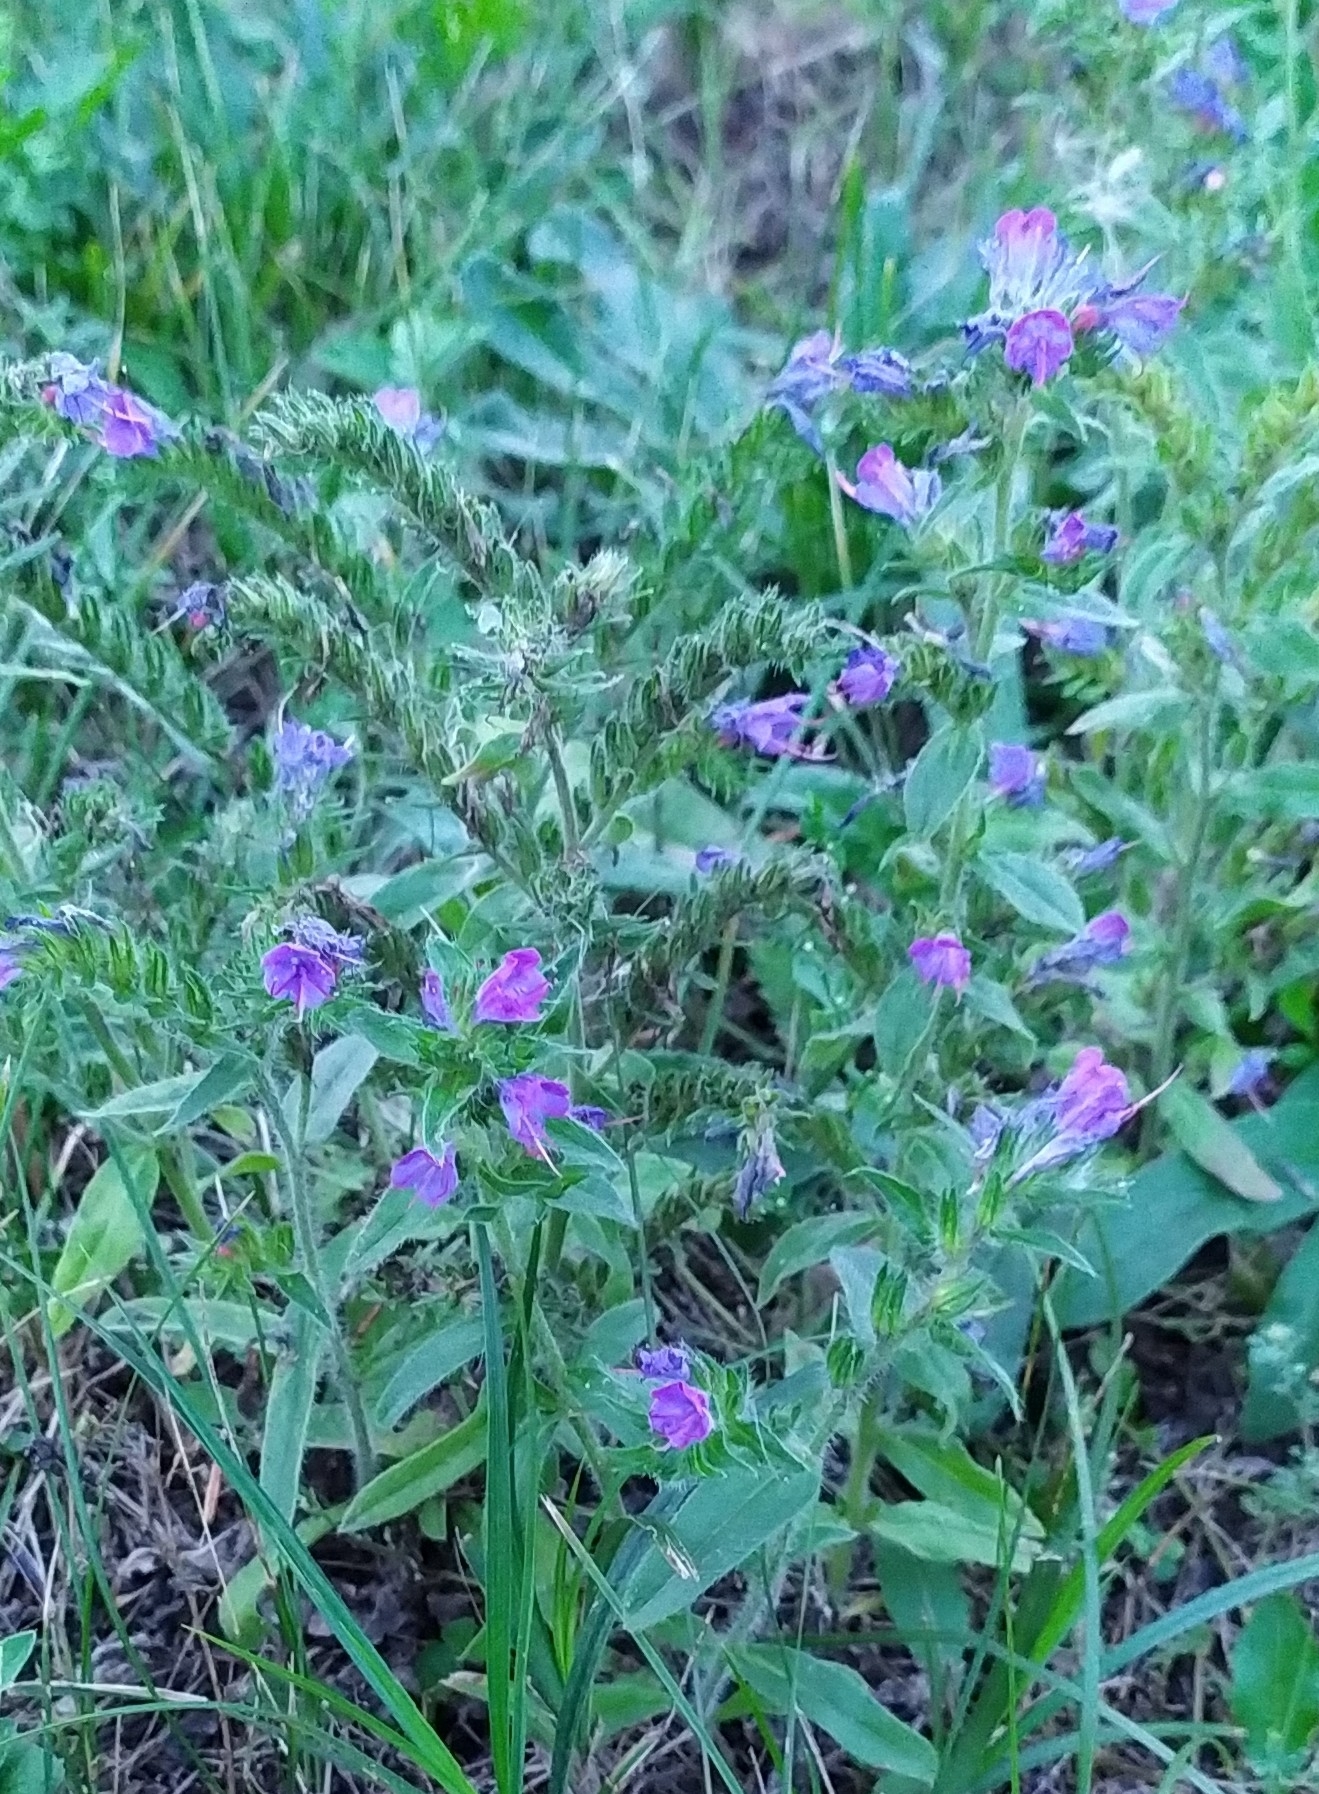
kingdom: Plantae
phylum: Tracheophyta
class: Magnoliopsida
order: Boraginales
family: Boraginaceae
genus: Echium
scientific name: Echium vulgare
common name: Common viper's bugloss
